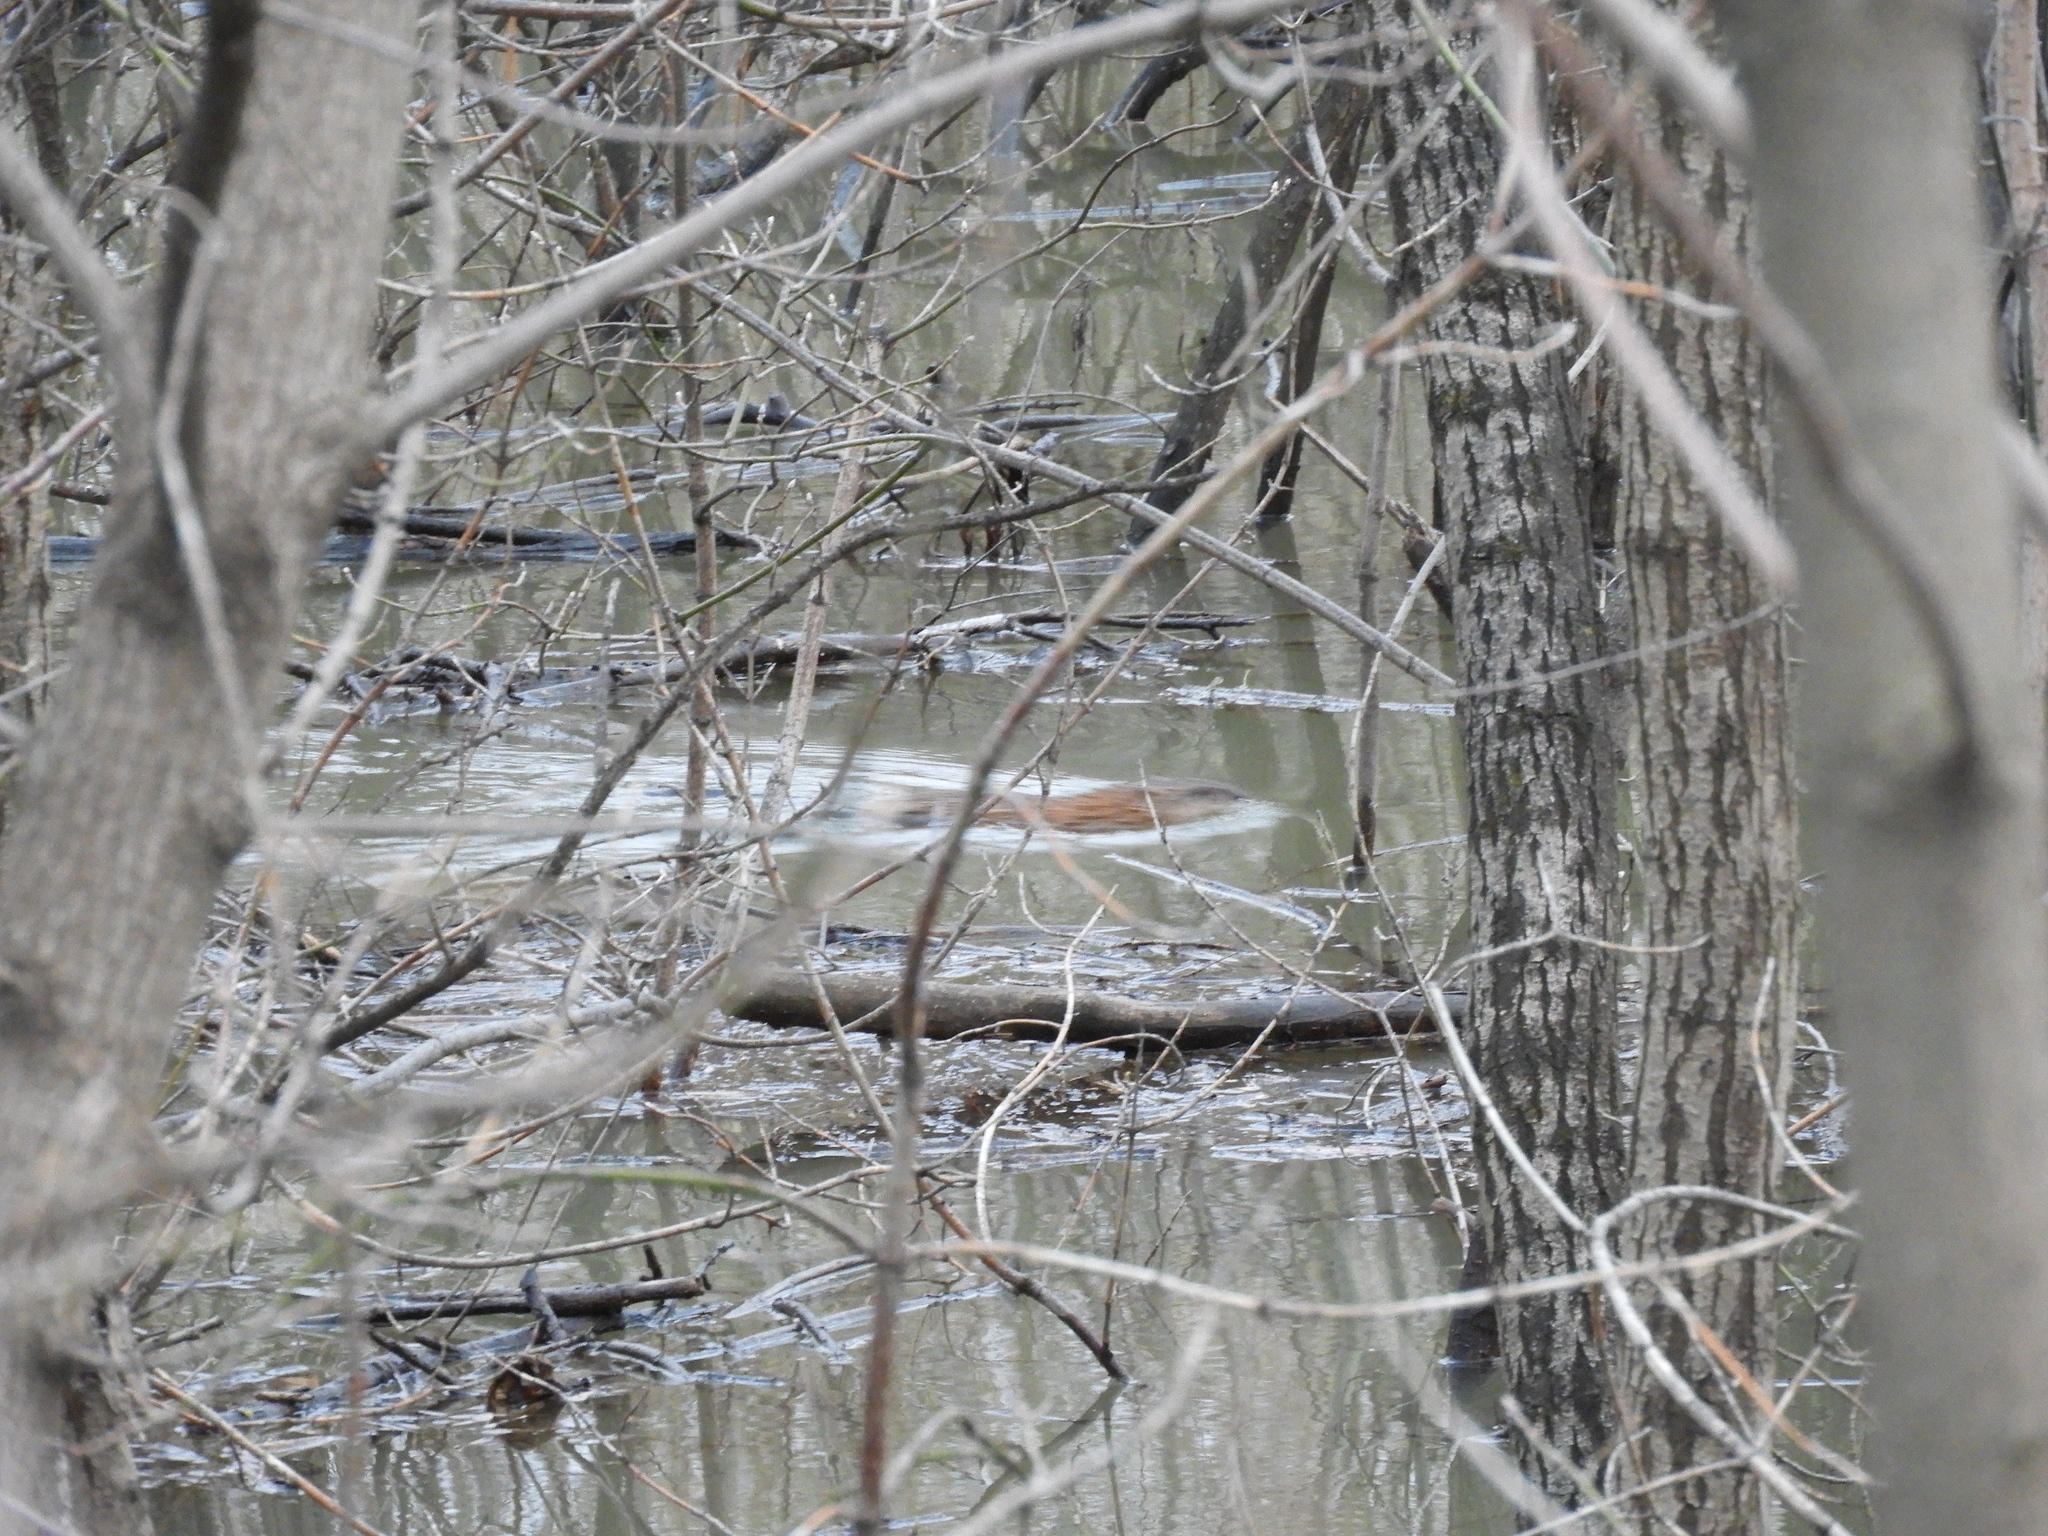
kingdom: Animalia
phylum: Chordata
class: Mammalia
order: Rodentia
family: Cricetidae
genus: Ondatra
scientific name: Ondatra zibethicus
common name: Muskrat
